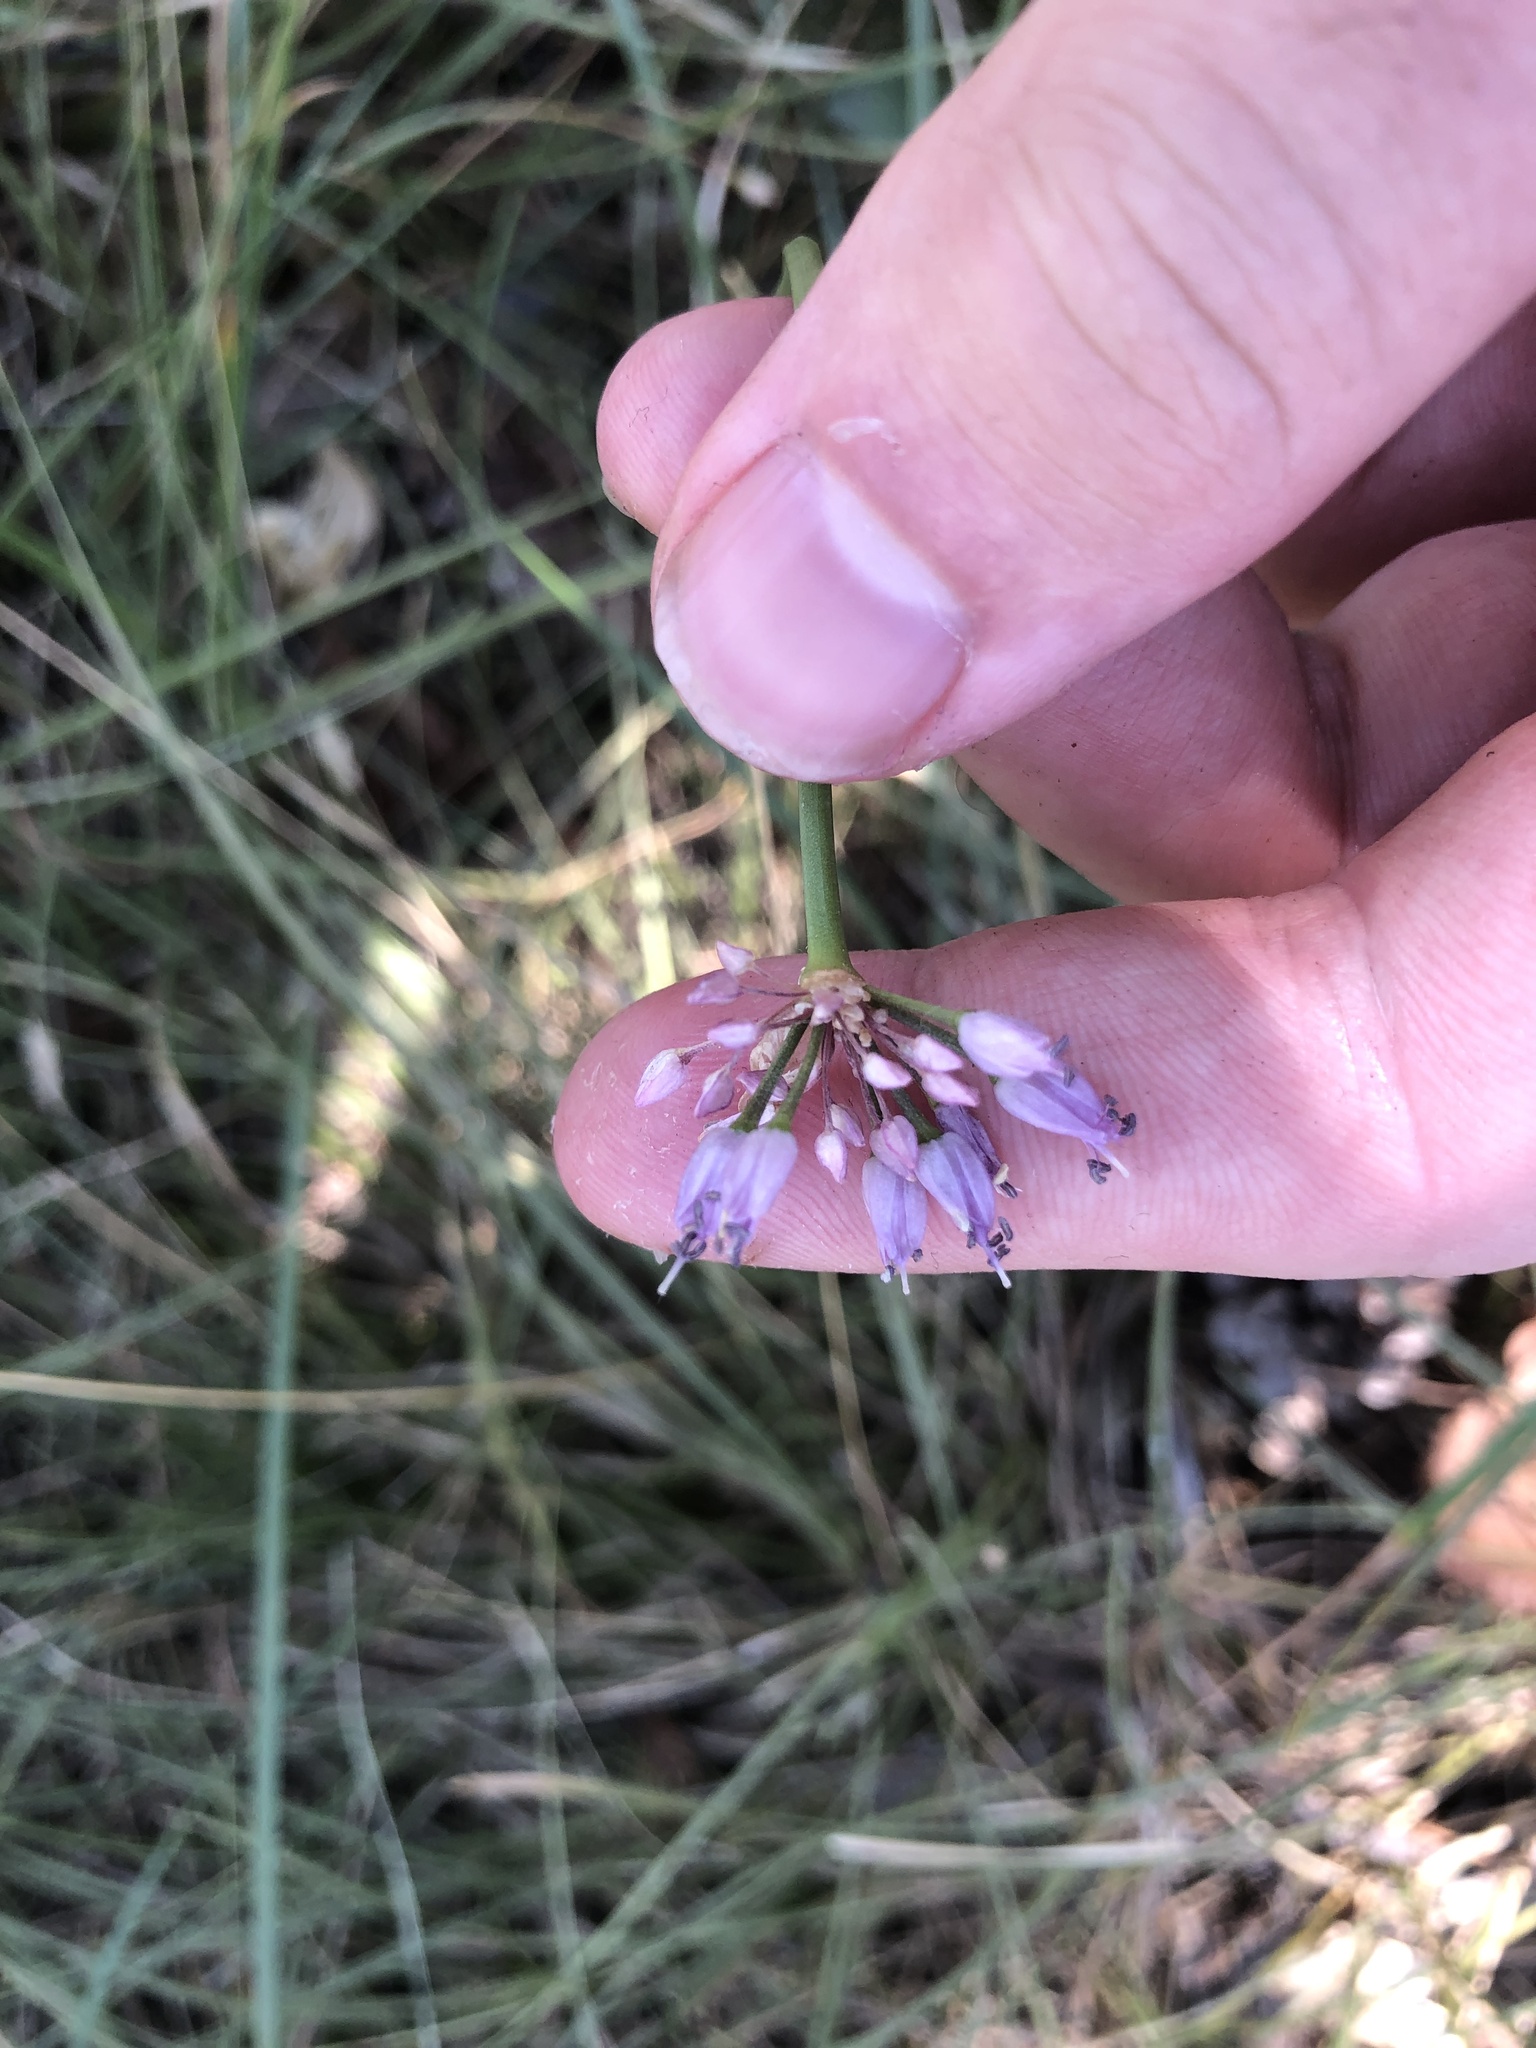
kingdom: Plantae
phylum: Tracheophyta
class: Liliopsida
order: Asparagales
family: Amaryllidaceae
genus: Allium
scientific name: Allium lusitanicum
